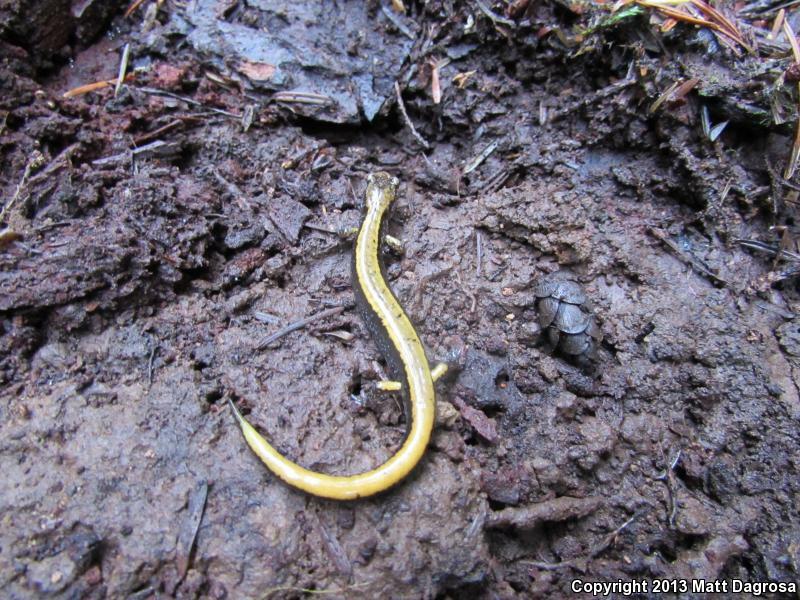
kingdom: Animalia
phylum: Chordata
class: Amphibia
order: Caudata
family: Plethodontidae
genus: Plethodon
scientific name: Plethodon vehiculum
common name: Western red-backed salamander
